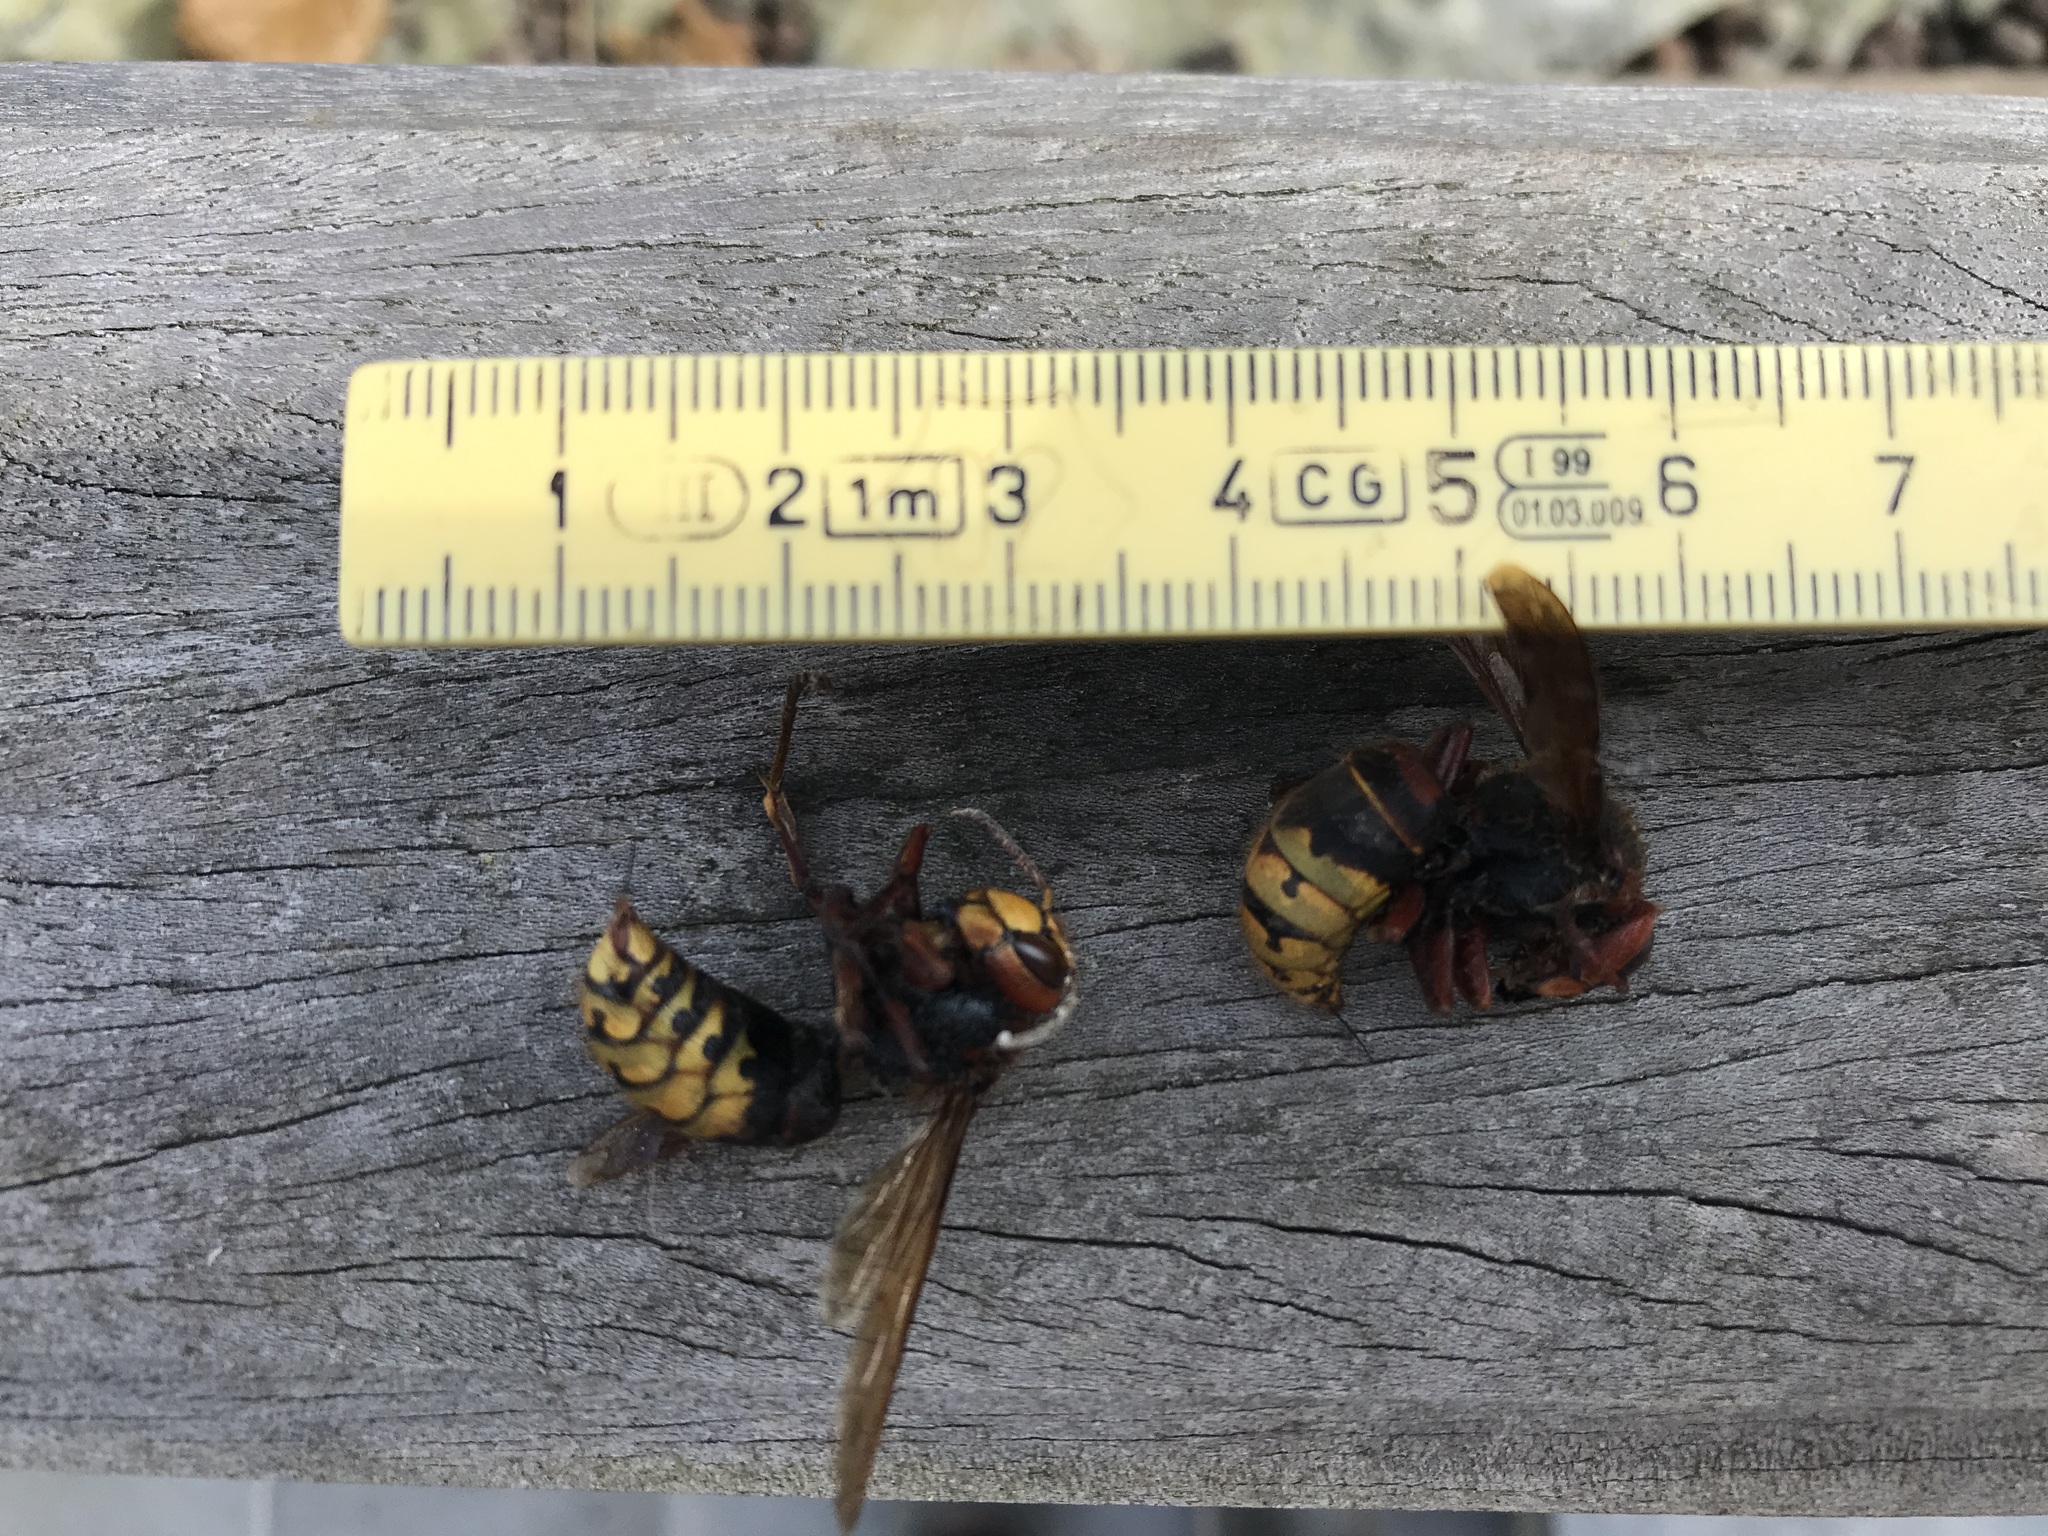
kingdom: Animalia
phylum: Arthropoda
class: Insecta
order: Hymenoptera
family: Vespidae
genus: Vespa
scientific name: Vespa crabro
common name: Hornet
